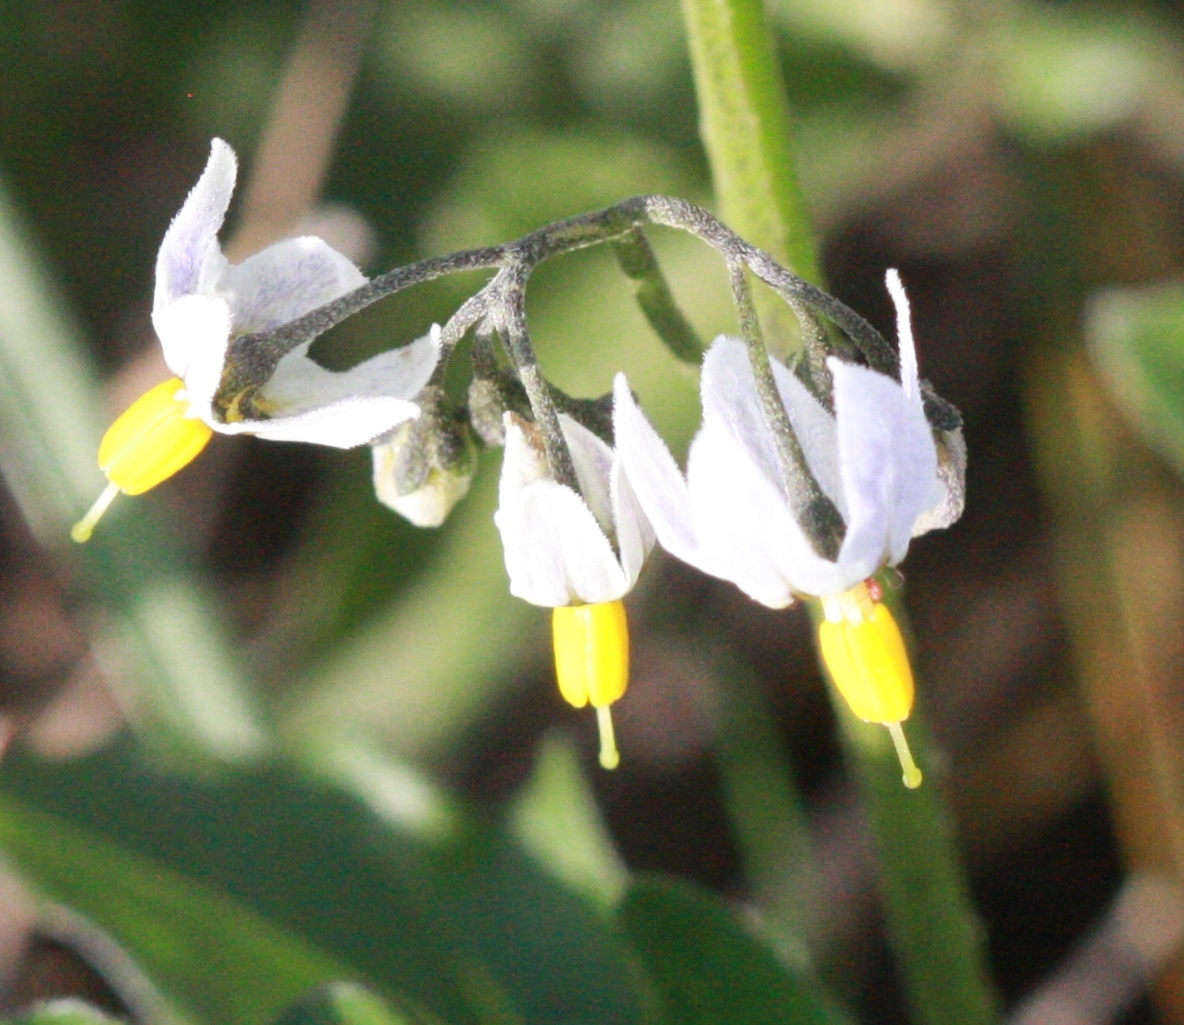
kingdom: Plantae
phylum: Tracheophyta
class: Magnoliopsida
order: Solanales
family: Solanaceae
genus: Solanum
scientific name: Solanum furcatum
